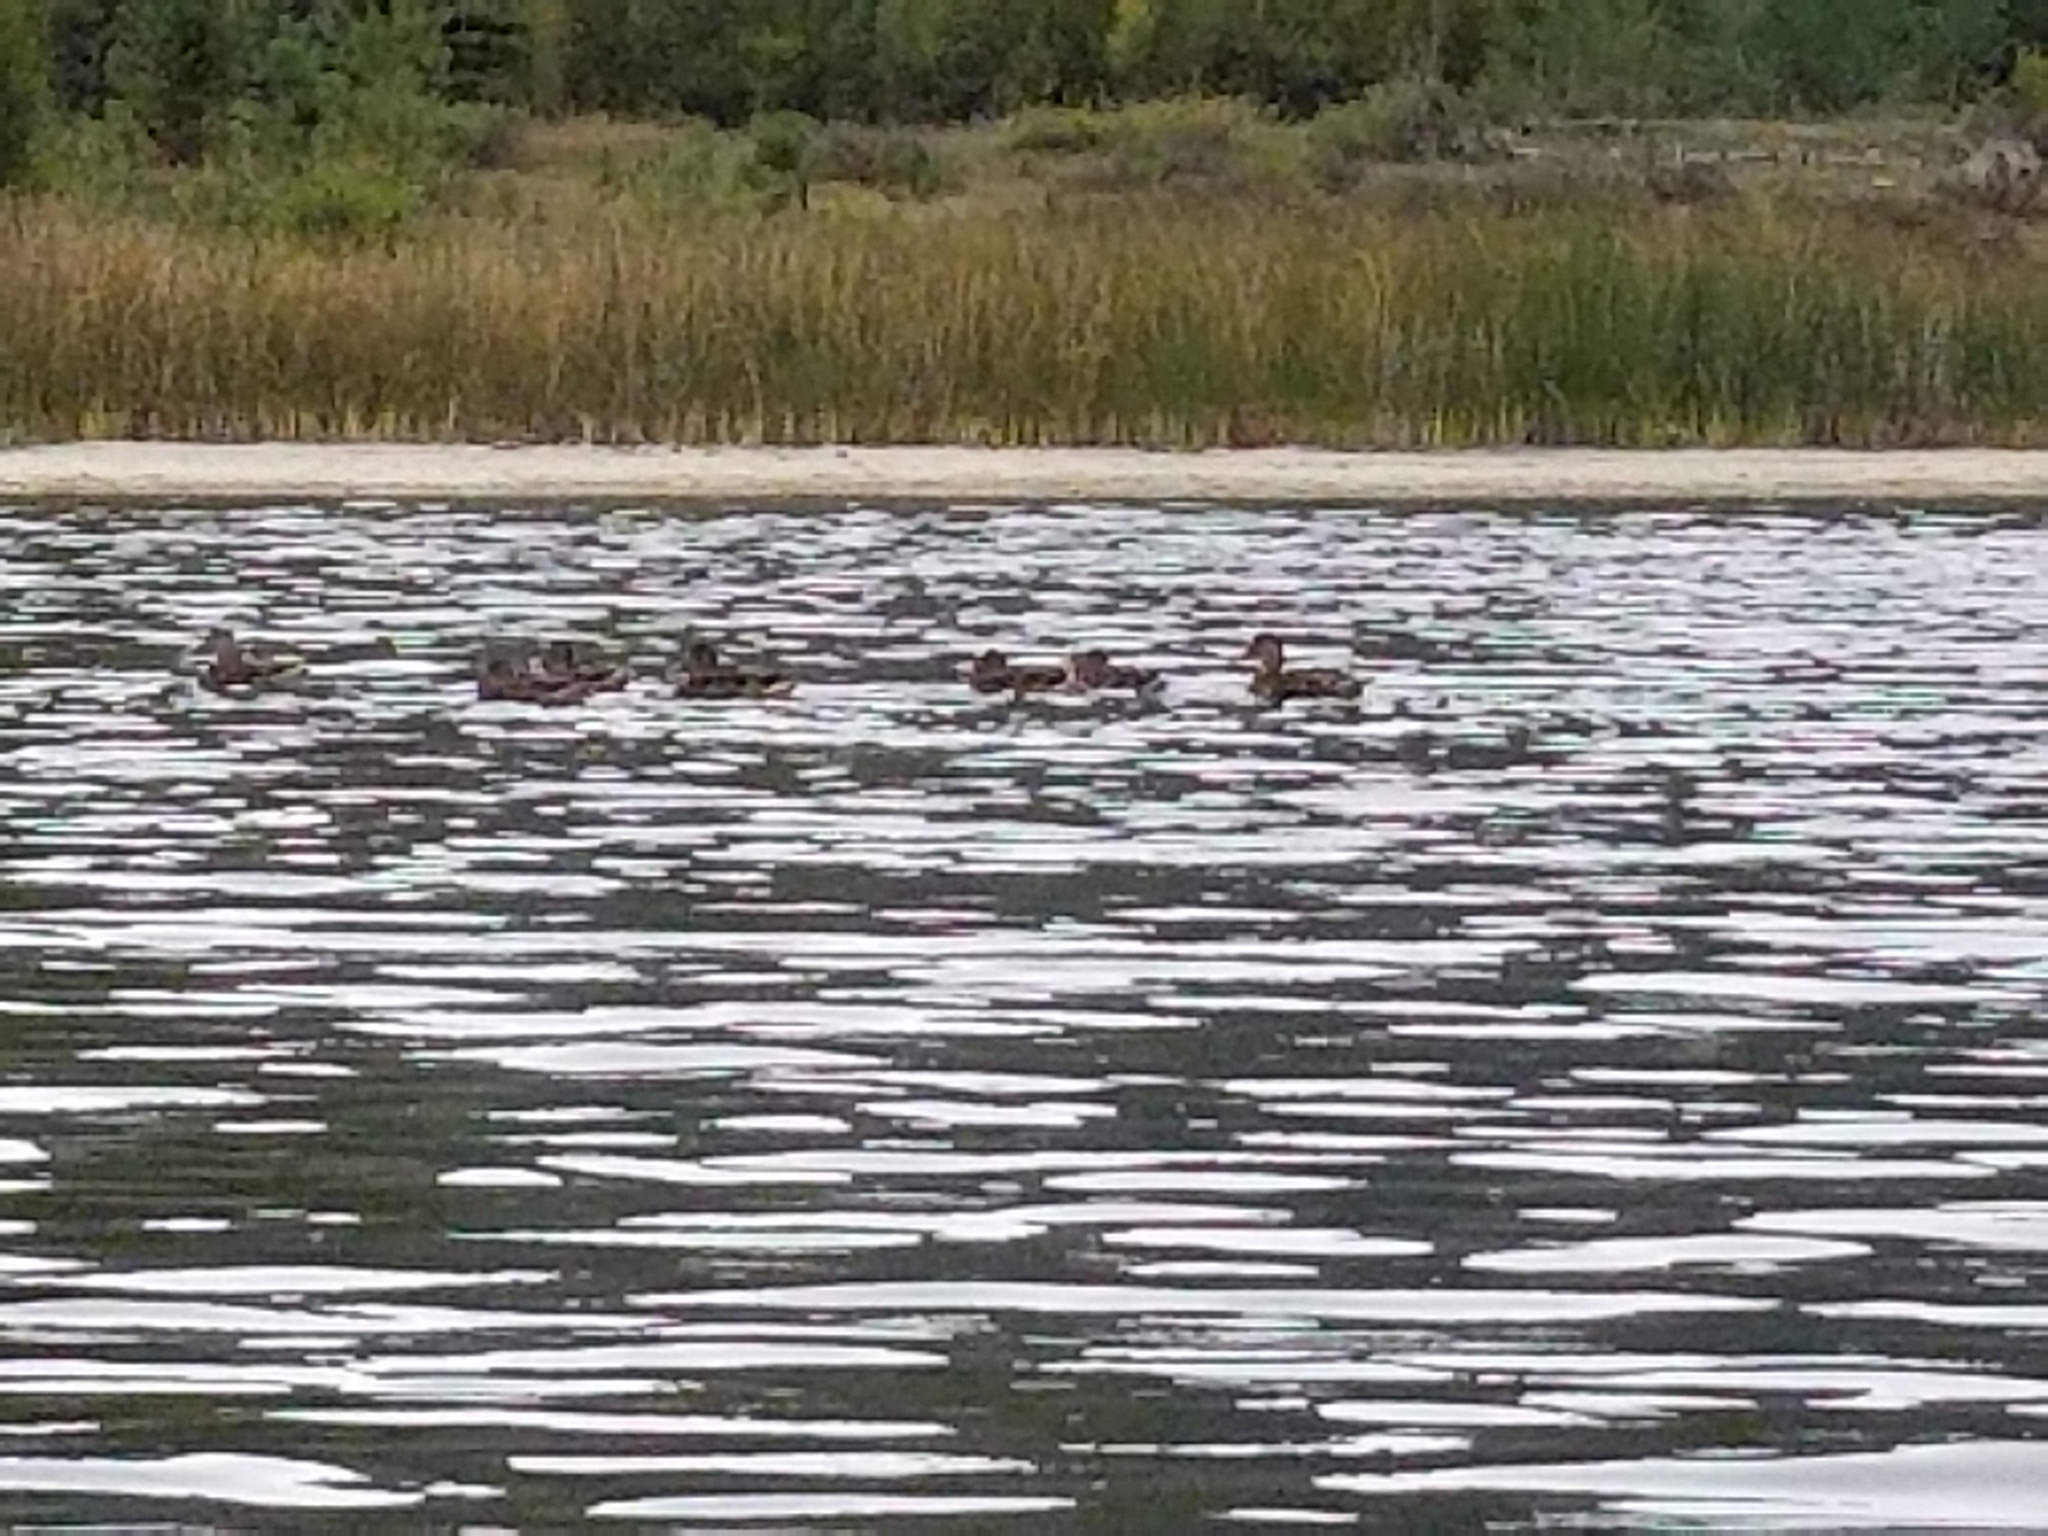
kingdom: Animalia
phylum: Chordata
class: Aves
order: Anseriformes
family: Anatidae
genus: Anas
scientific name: Anas platyrhynchos
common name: Mallard
